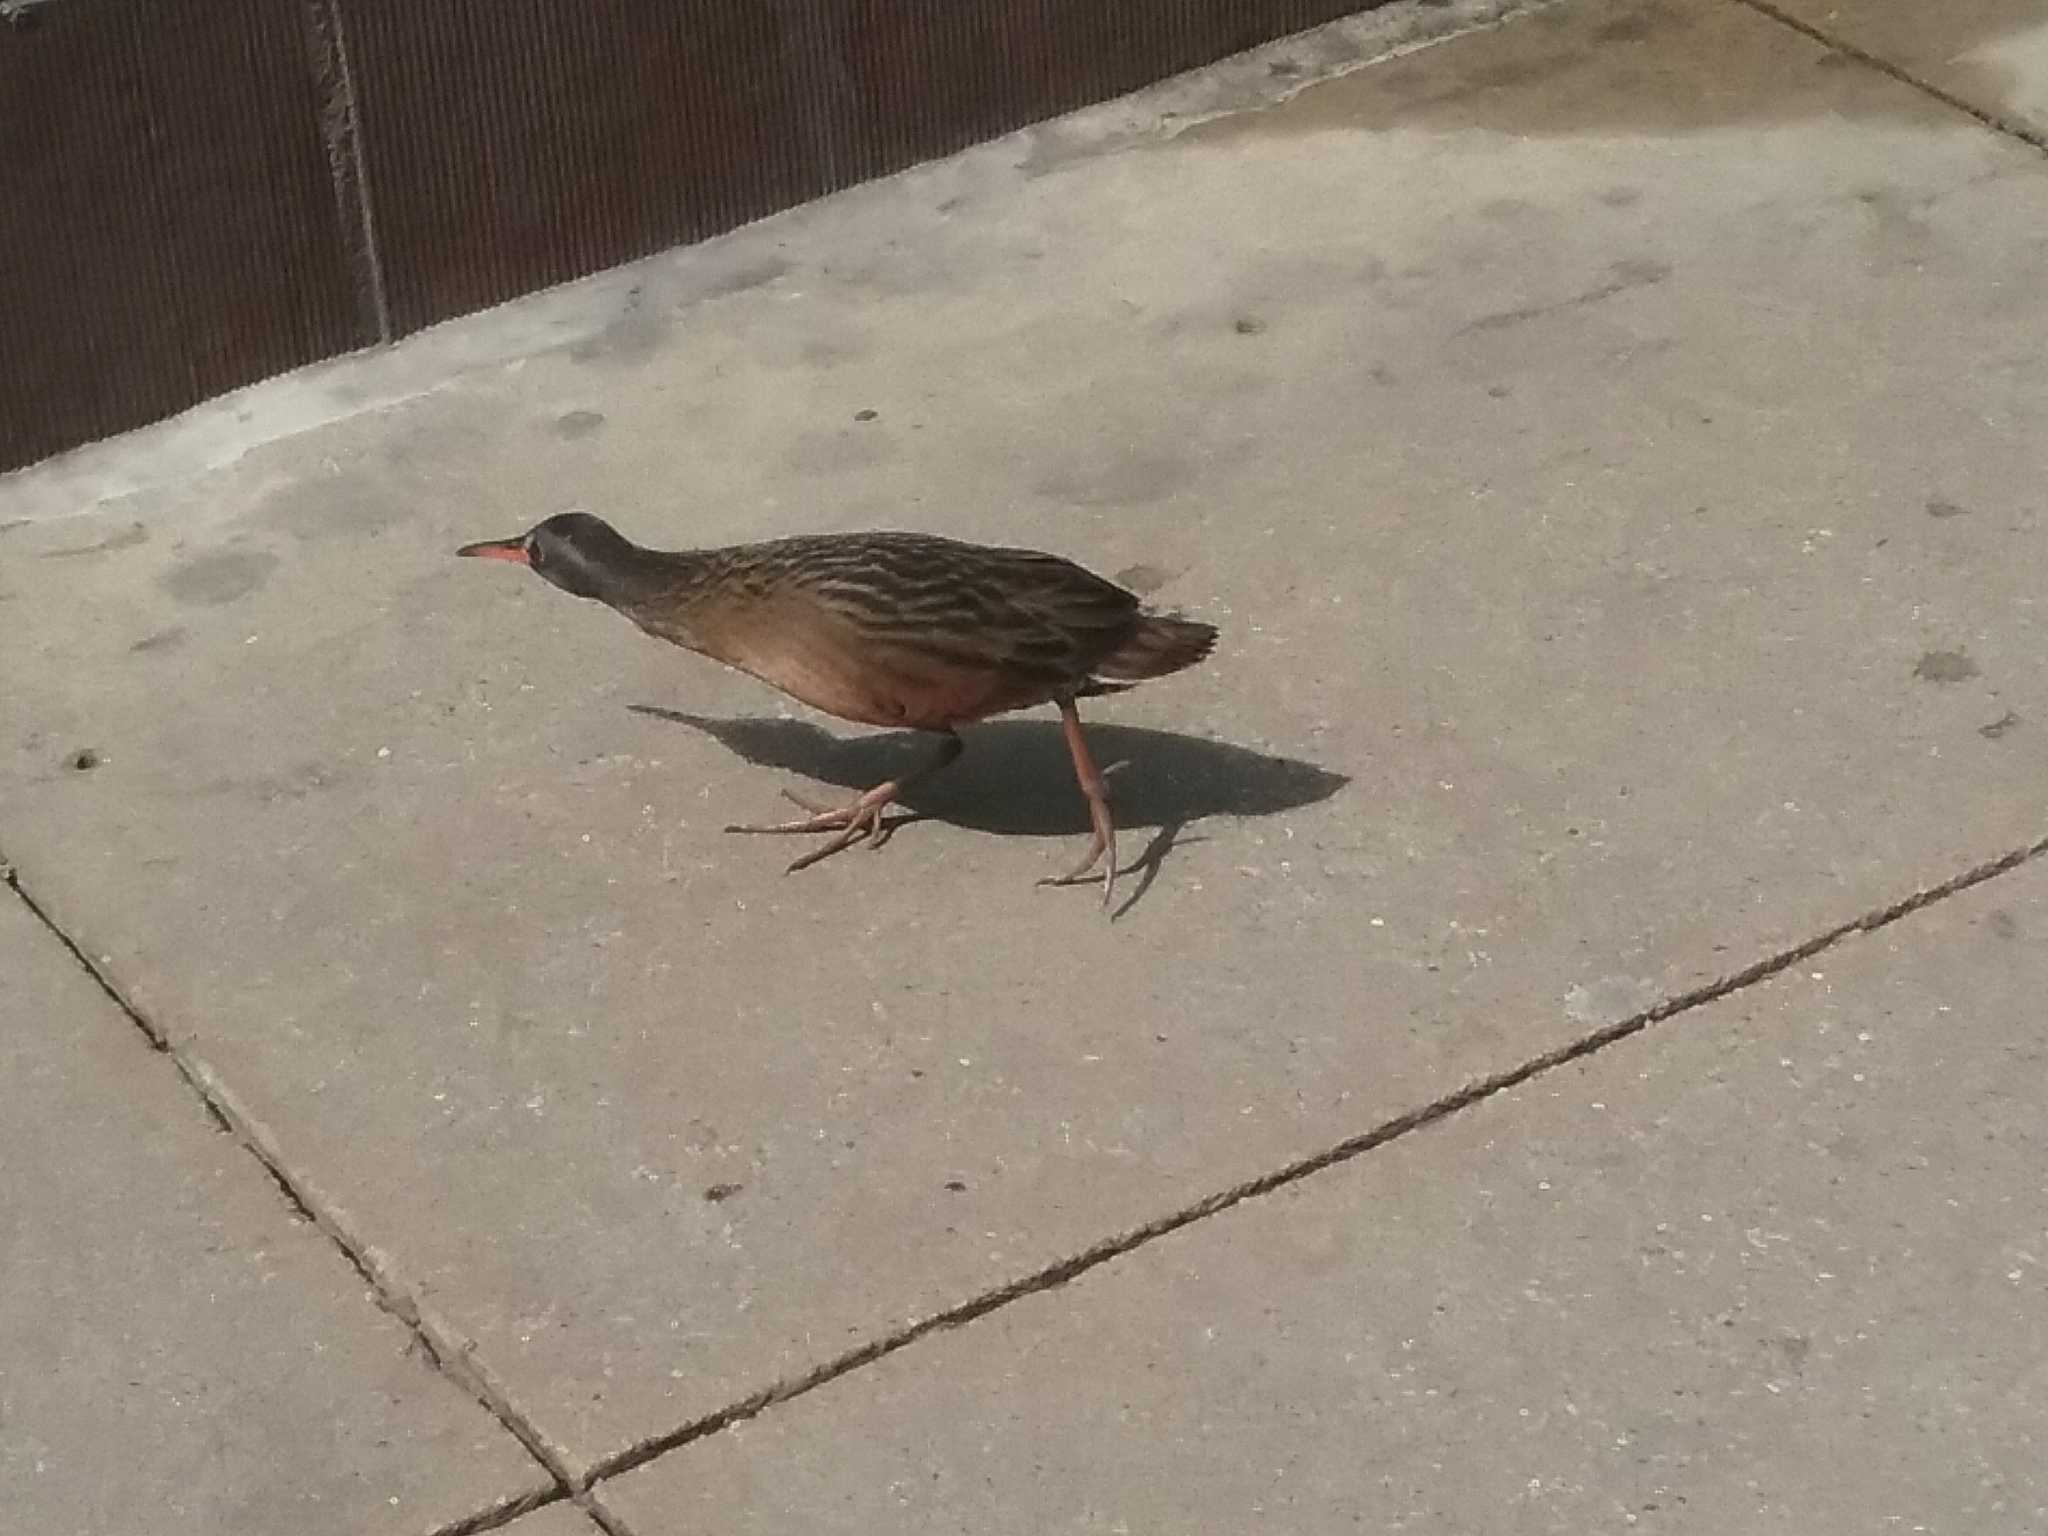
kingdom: Animalia
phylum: Chordata
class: Aves
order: Gruiformes
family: Rallidae
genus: Rallus
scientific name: Rallus limicola
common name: Virginia rail
